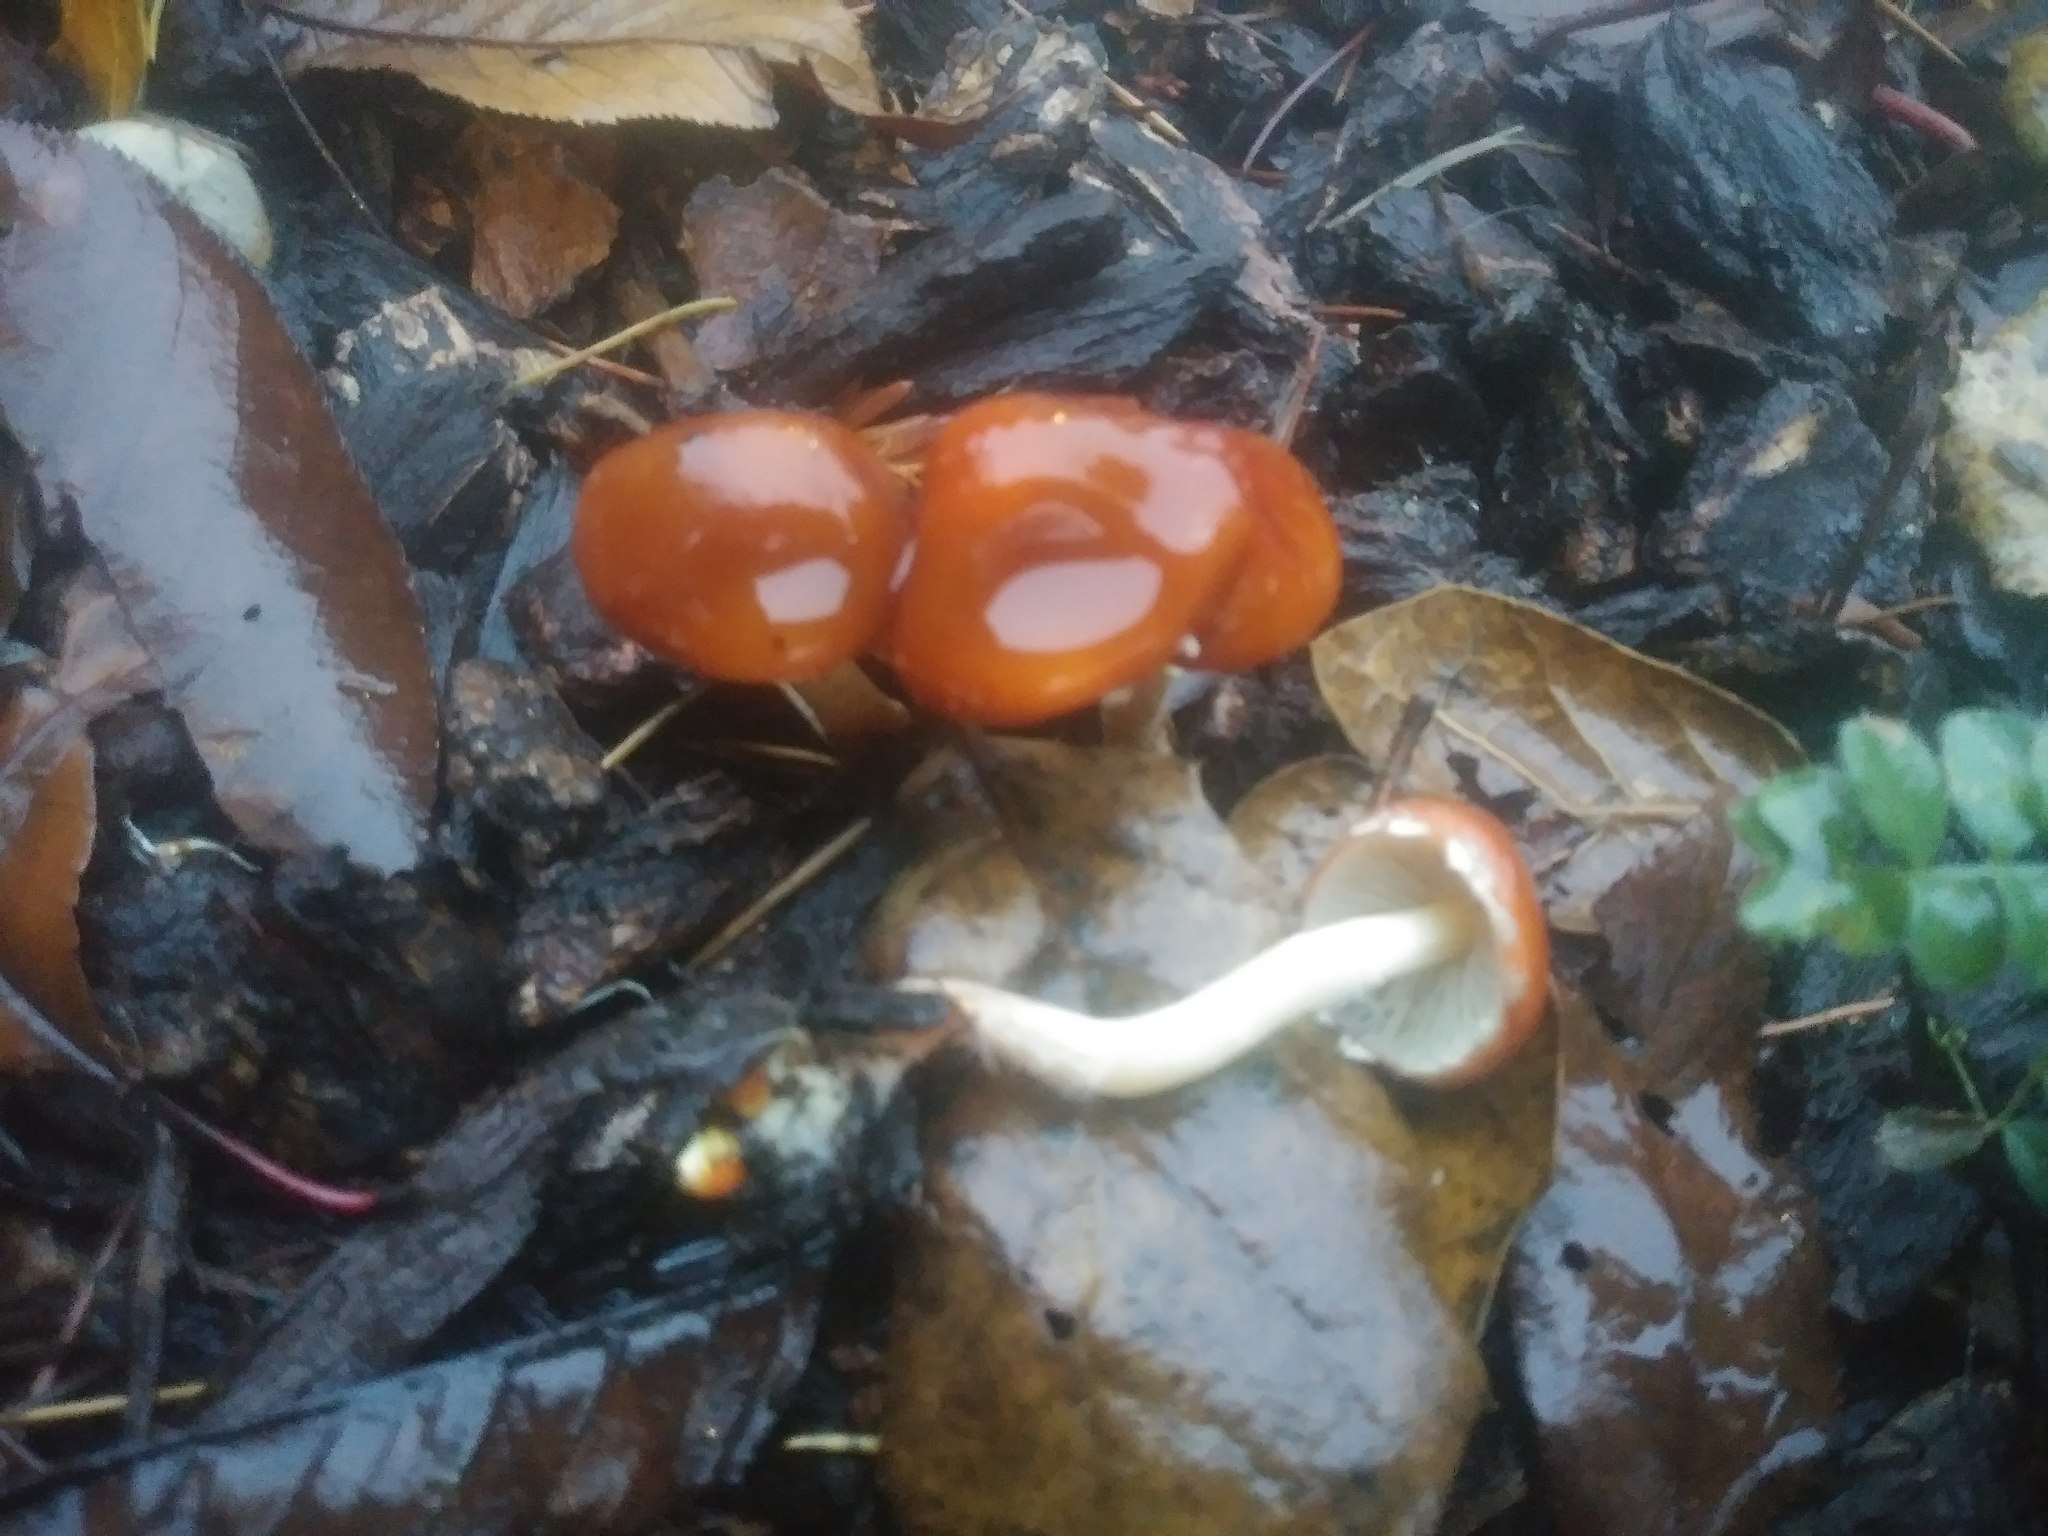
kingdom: Fungi
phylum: Basidiomycota
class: Agaricomycetes
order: Agaricales
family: Strophariaceae
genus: Leratiomyces
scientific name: Leratiomyces ceres
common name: Redlead roundhead
